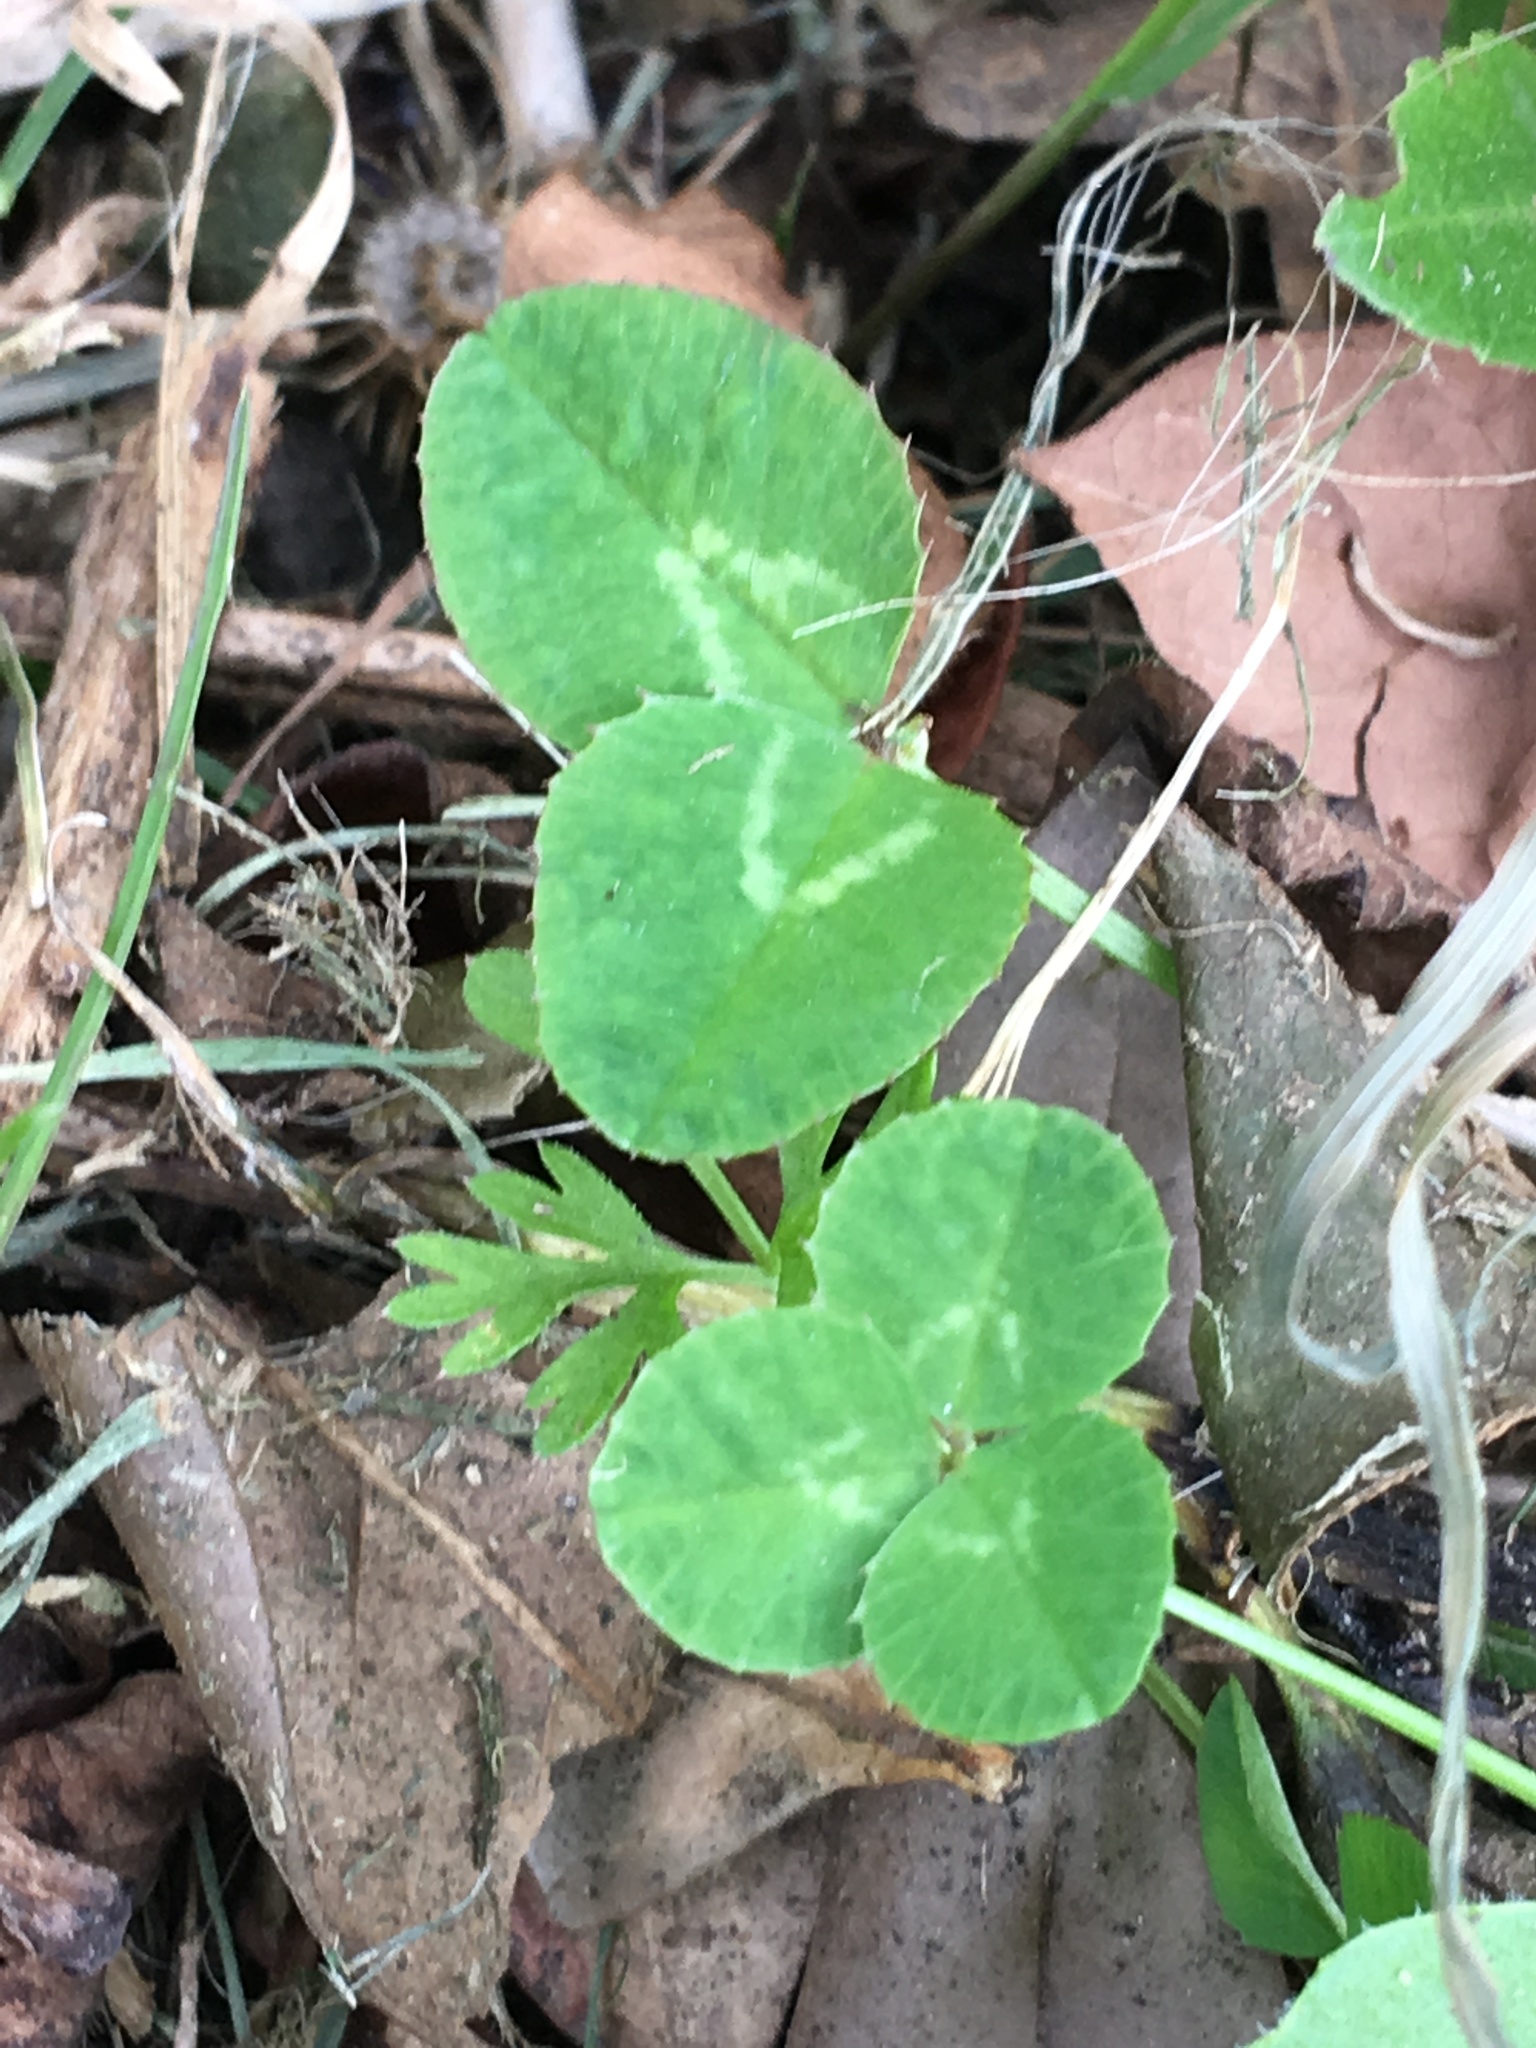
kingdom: Plantae
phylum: Tracheophyta
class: Magnoliopsida
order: Fabales
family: Fabaceae
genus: Trifolium
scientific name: Trifolium repens
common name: White clover
